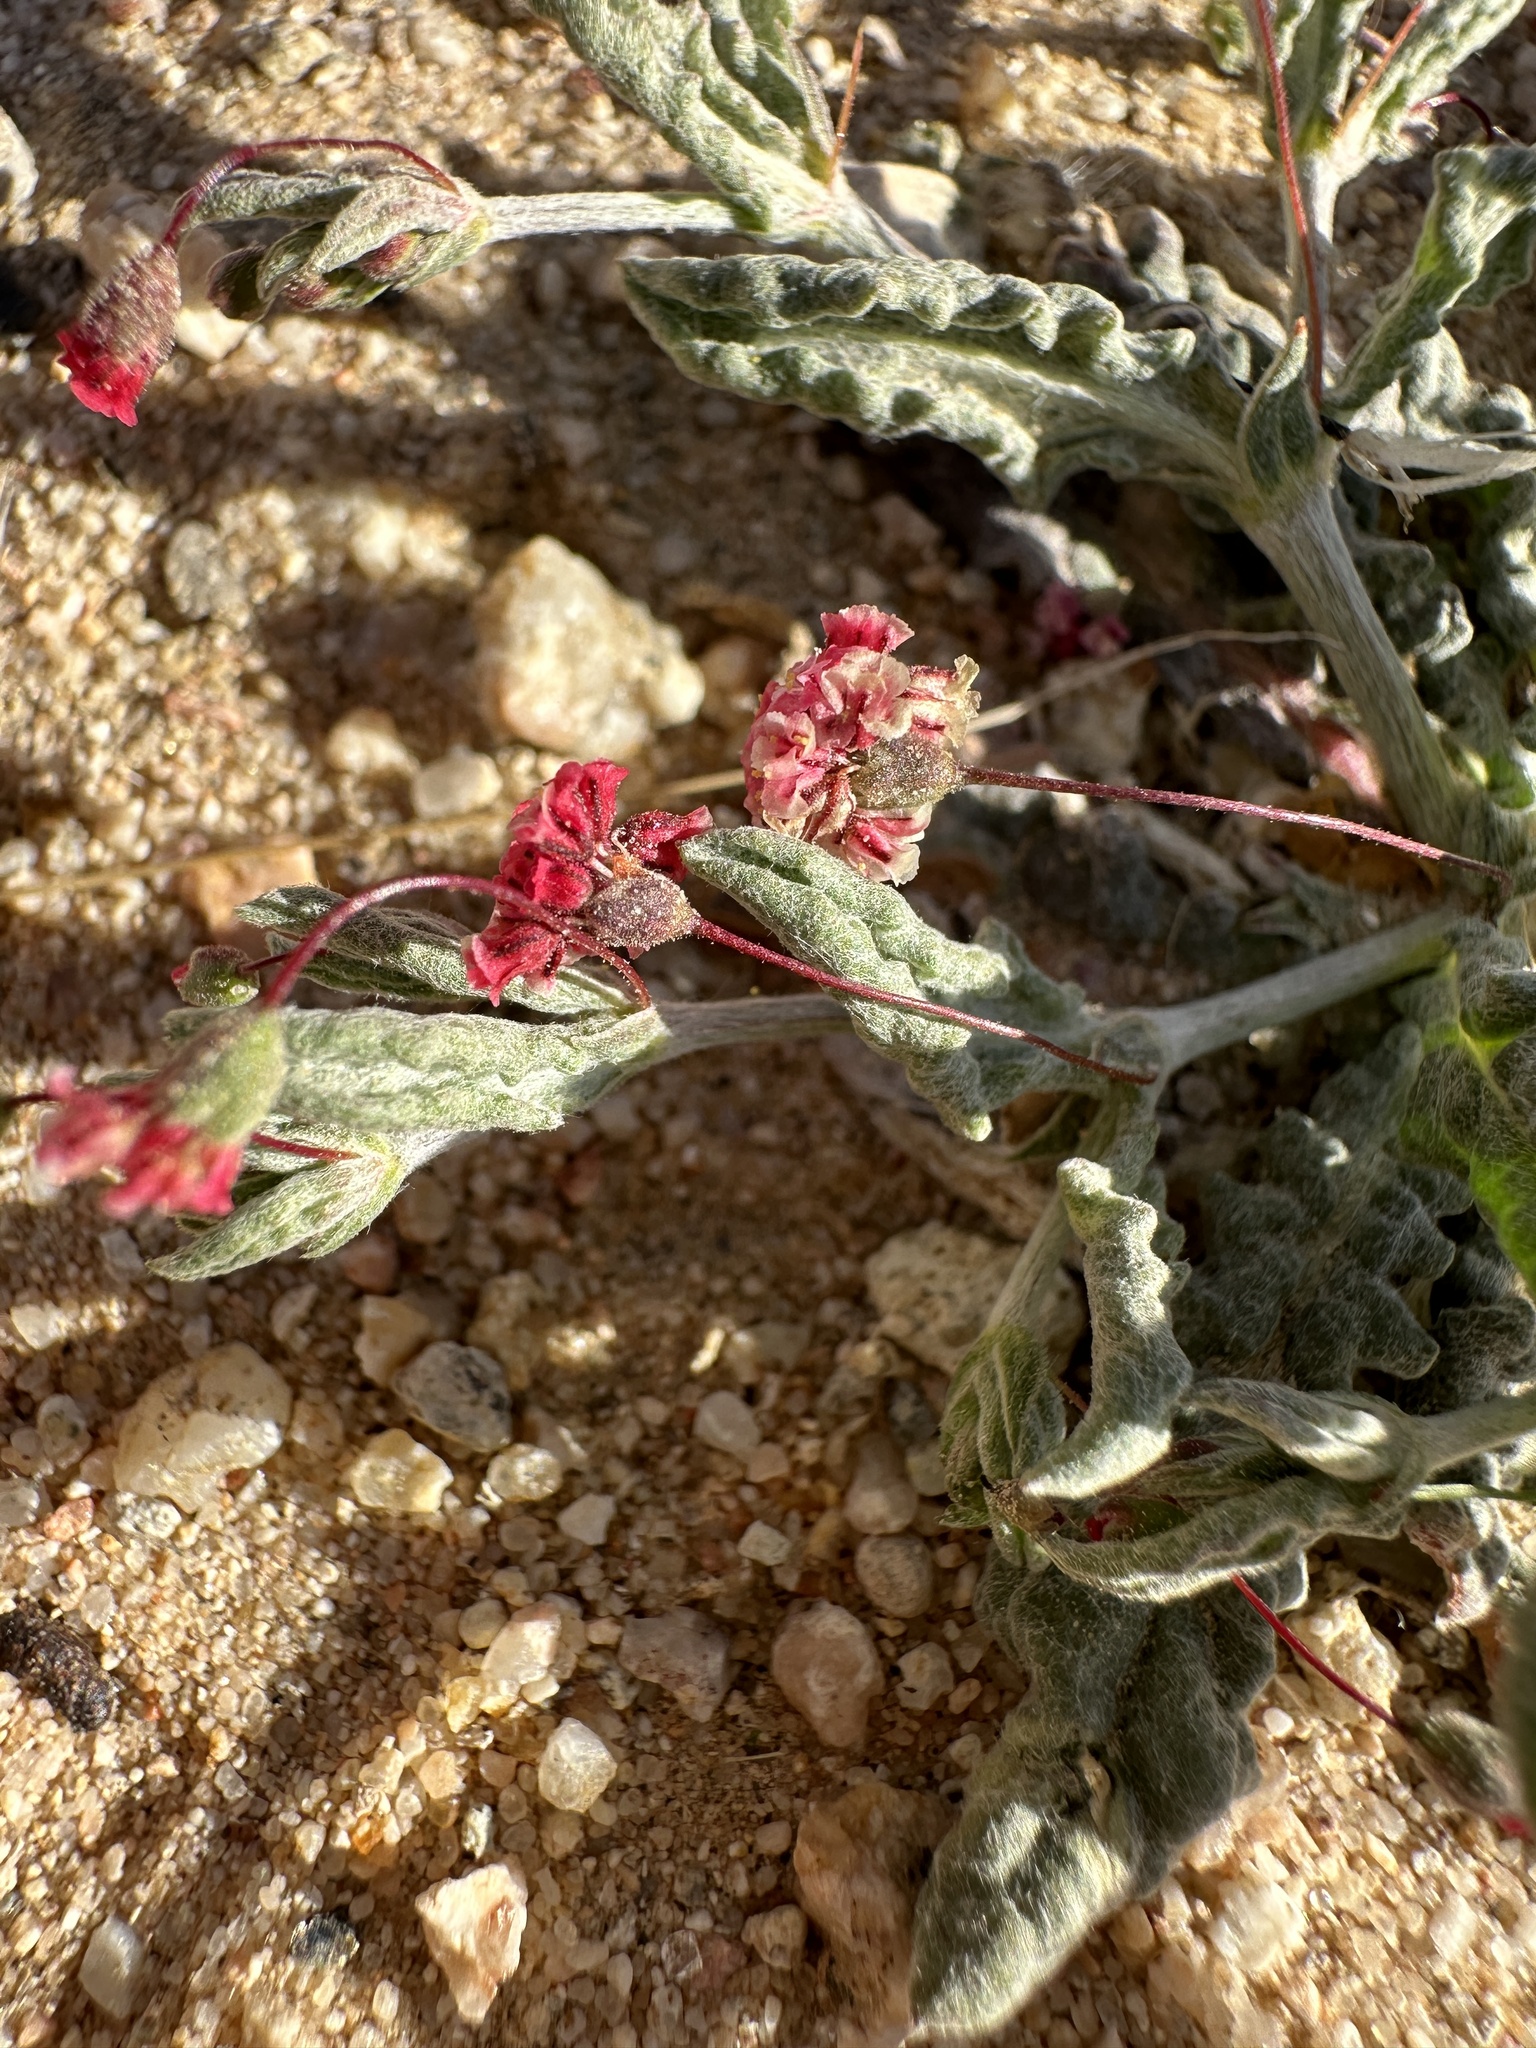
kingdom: Plantae
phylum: Tracheophyta
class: Magnoliopsida
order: Caryophyllales
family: Polygonaceae
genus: Eriogonum
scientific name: Eriogonum gracillimum
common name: Rose-and-white wild buckwheat
